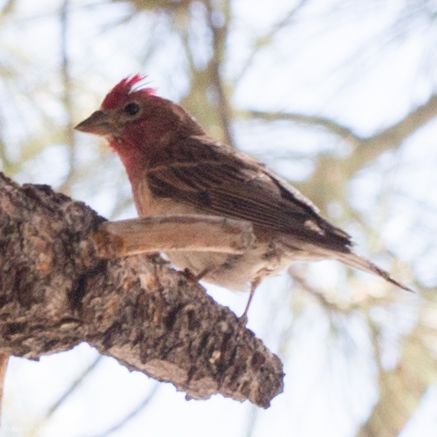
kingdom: Animalia
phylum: Chordata
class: Aves
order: Passeriformes
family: Fringillidae
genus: Haemorhous
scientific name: Haemorhous cassinii
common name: Cassin's finch
